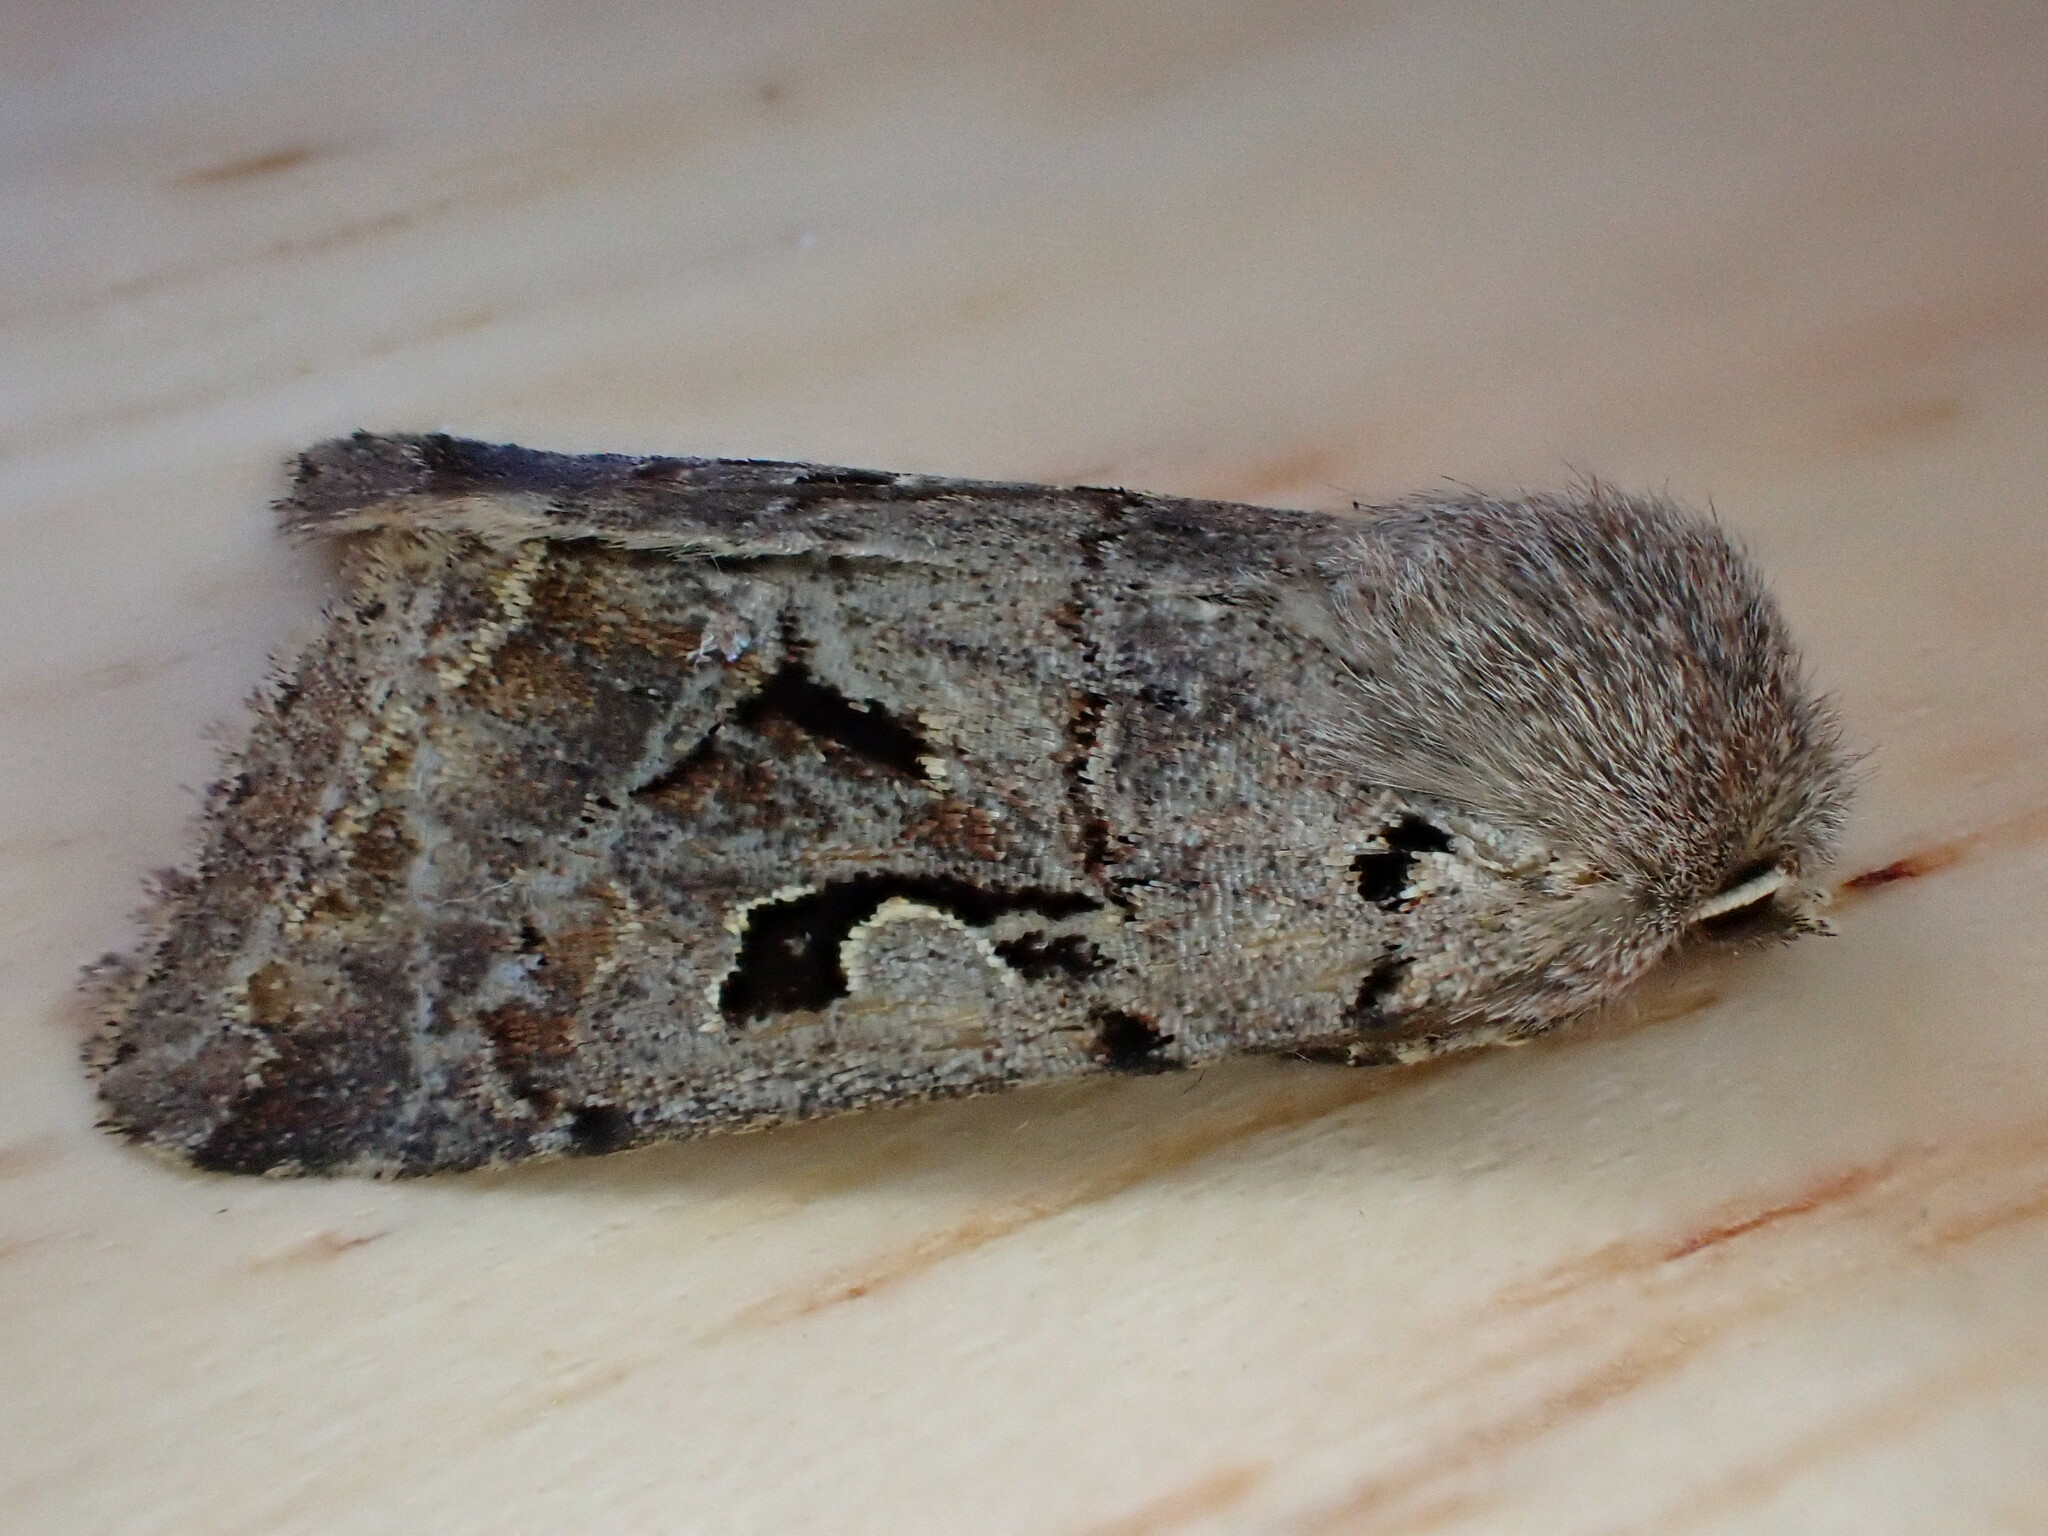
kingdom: Animalia
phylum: Arthropoda
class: Insecta
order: Lepidoptera
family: Noctuidae
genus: Orthosia
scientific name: Orthosia gothica
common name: Hebrew character
